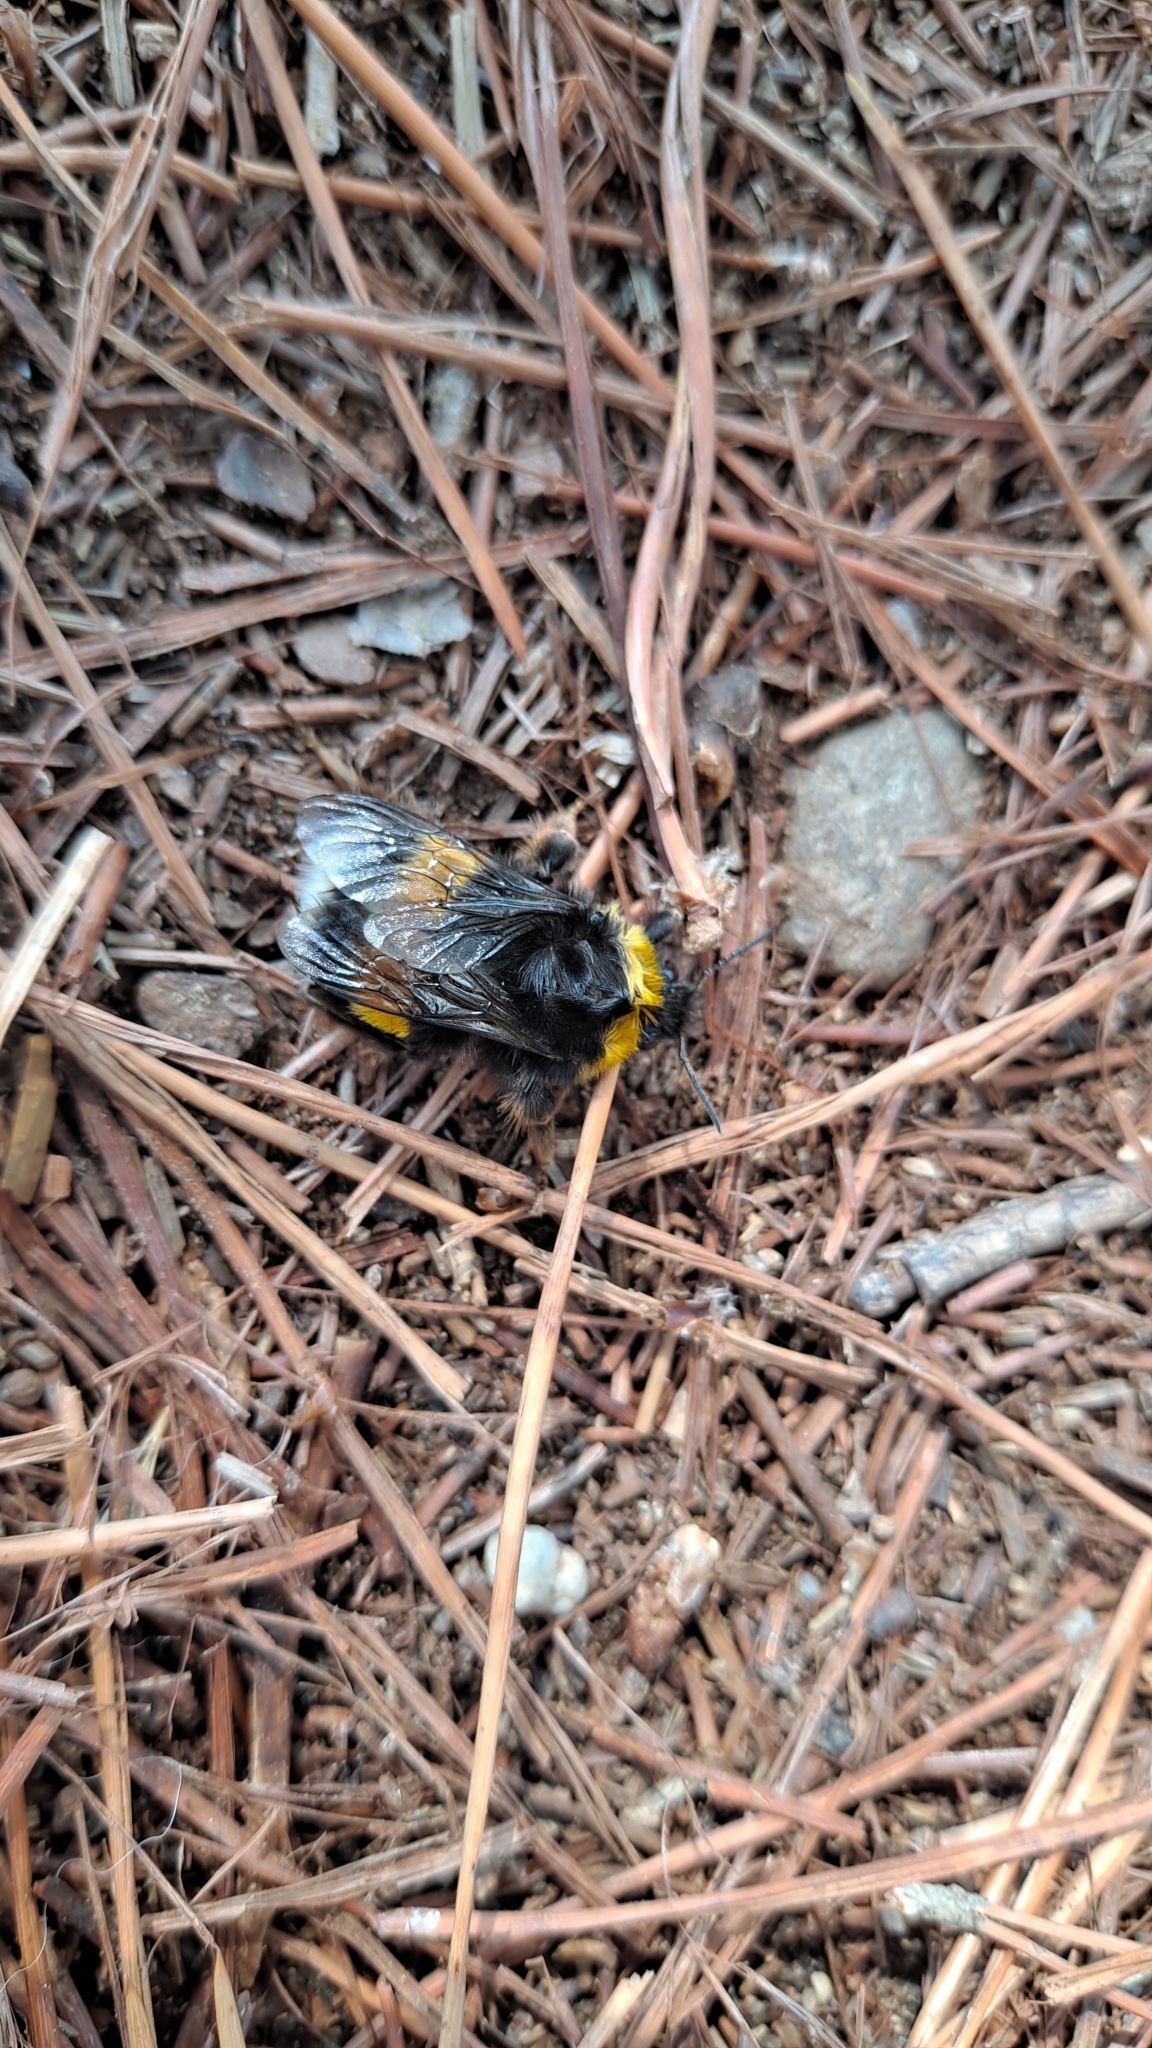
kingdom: Animalia
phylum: Arthropoda
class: Insecta
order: Hymenoptera
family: Apidae
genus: Bombus
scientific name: Bombus terrestris
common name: Buff-tailed bumblebee
